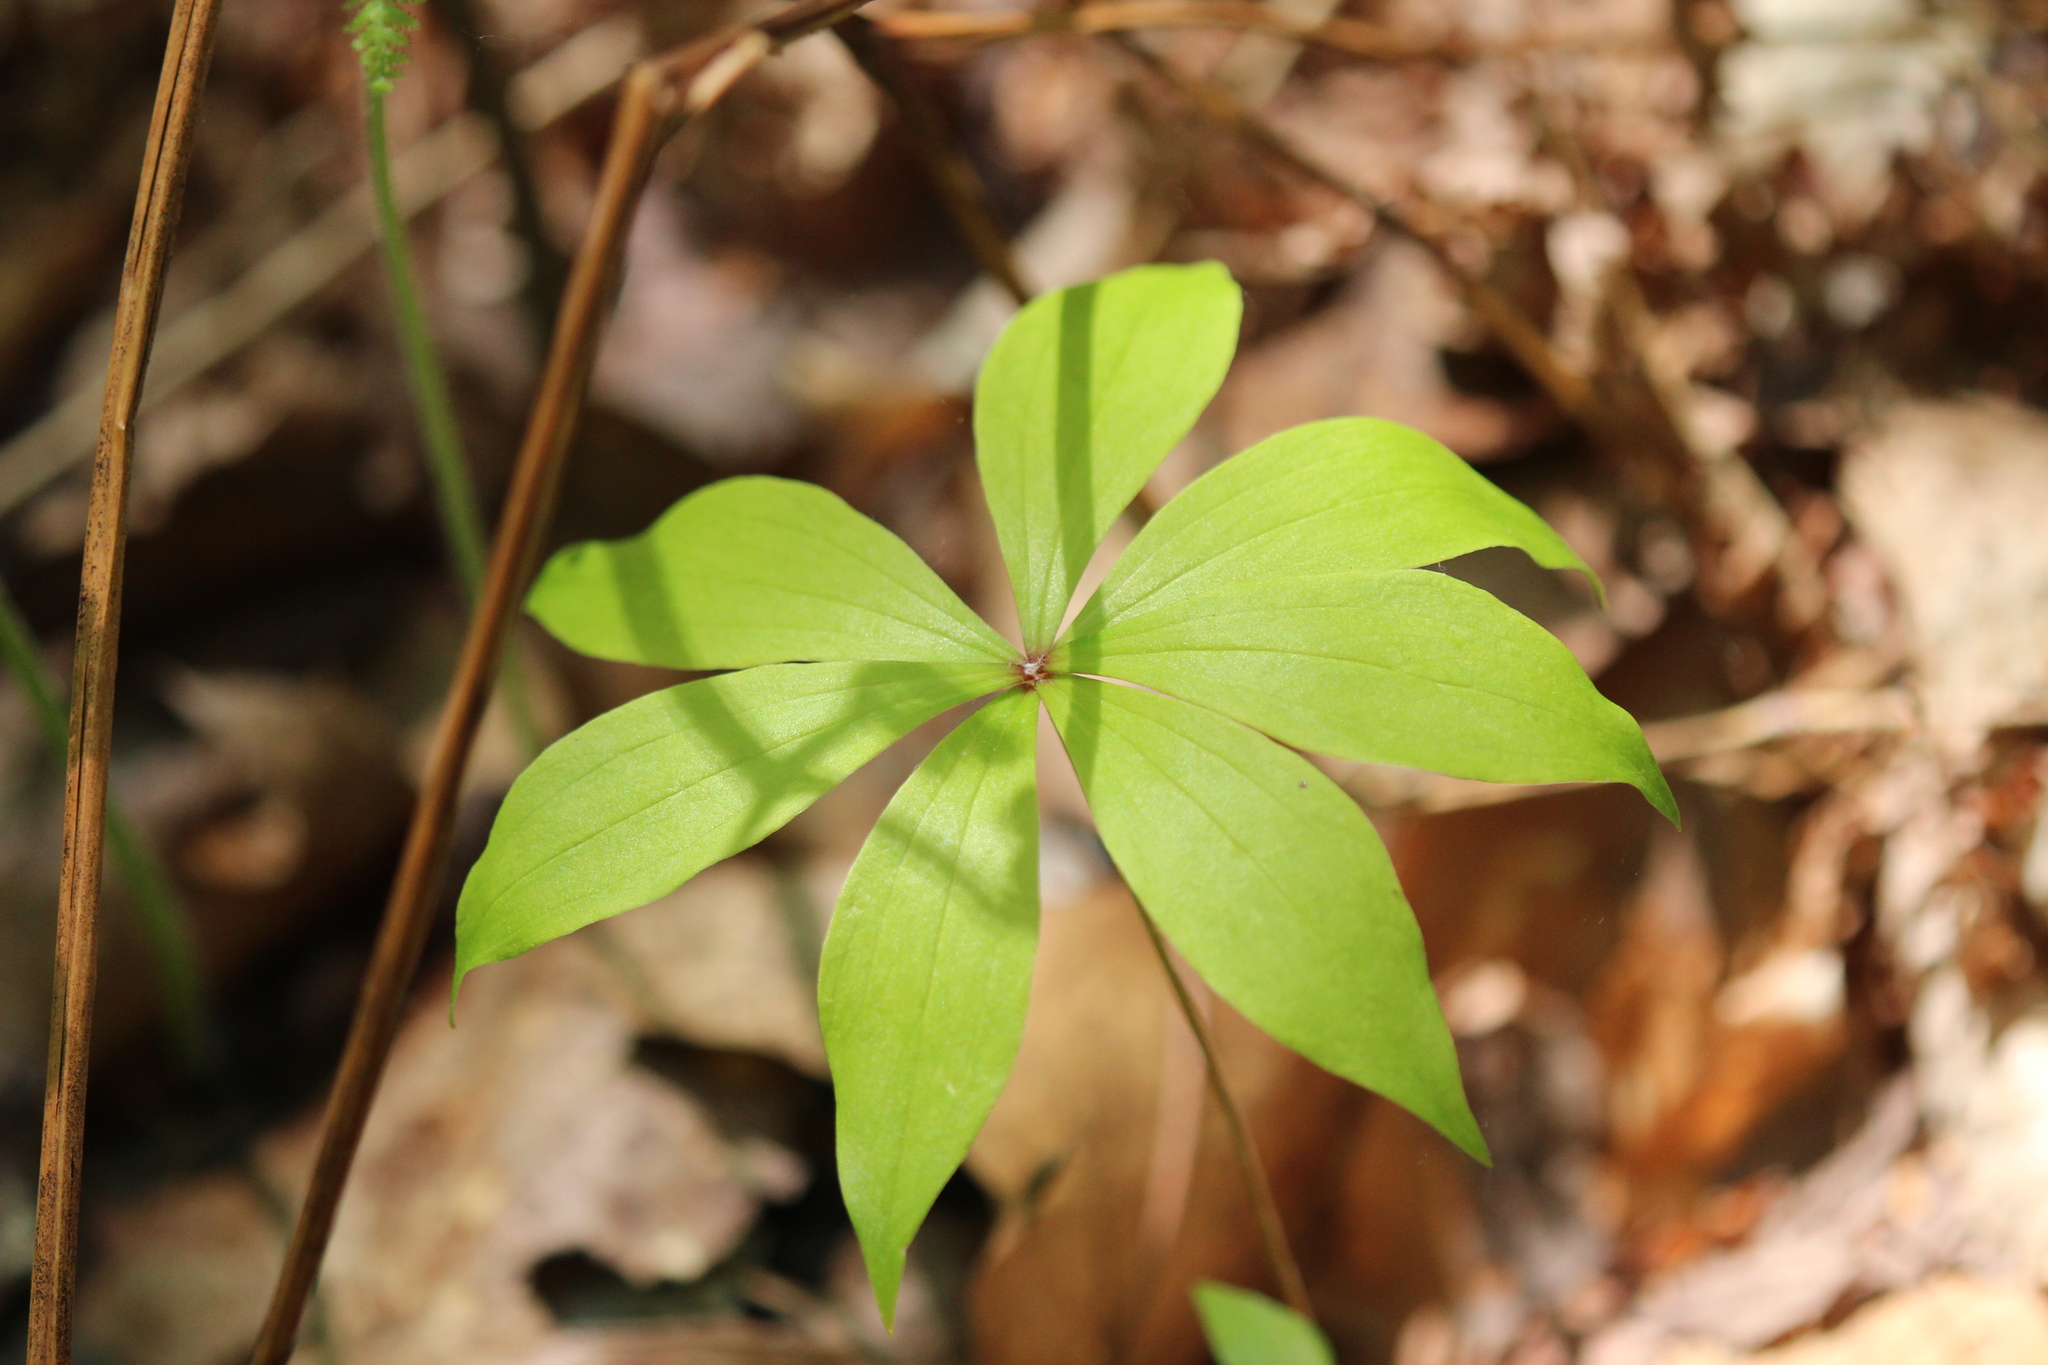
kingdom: Plantae
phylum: Tracheophyta
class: Liliopsida
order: Liliales
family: Liliaceae
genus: Medeola
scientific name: Medeola virginiana
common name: Indian cucumber-root
